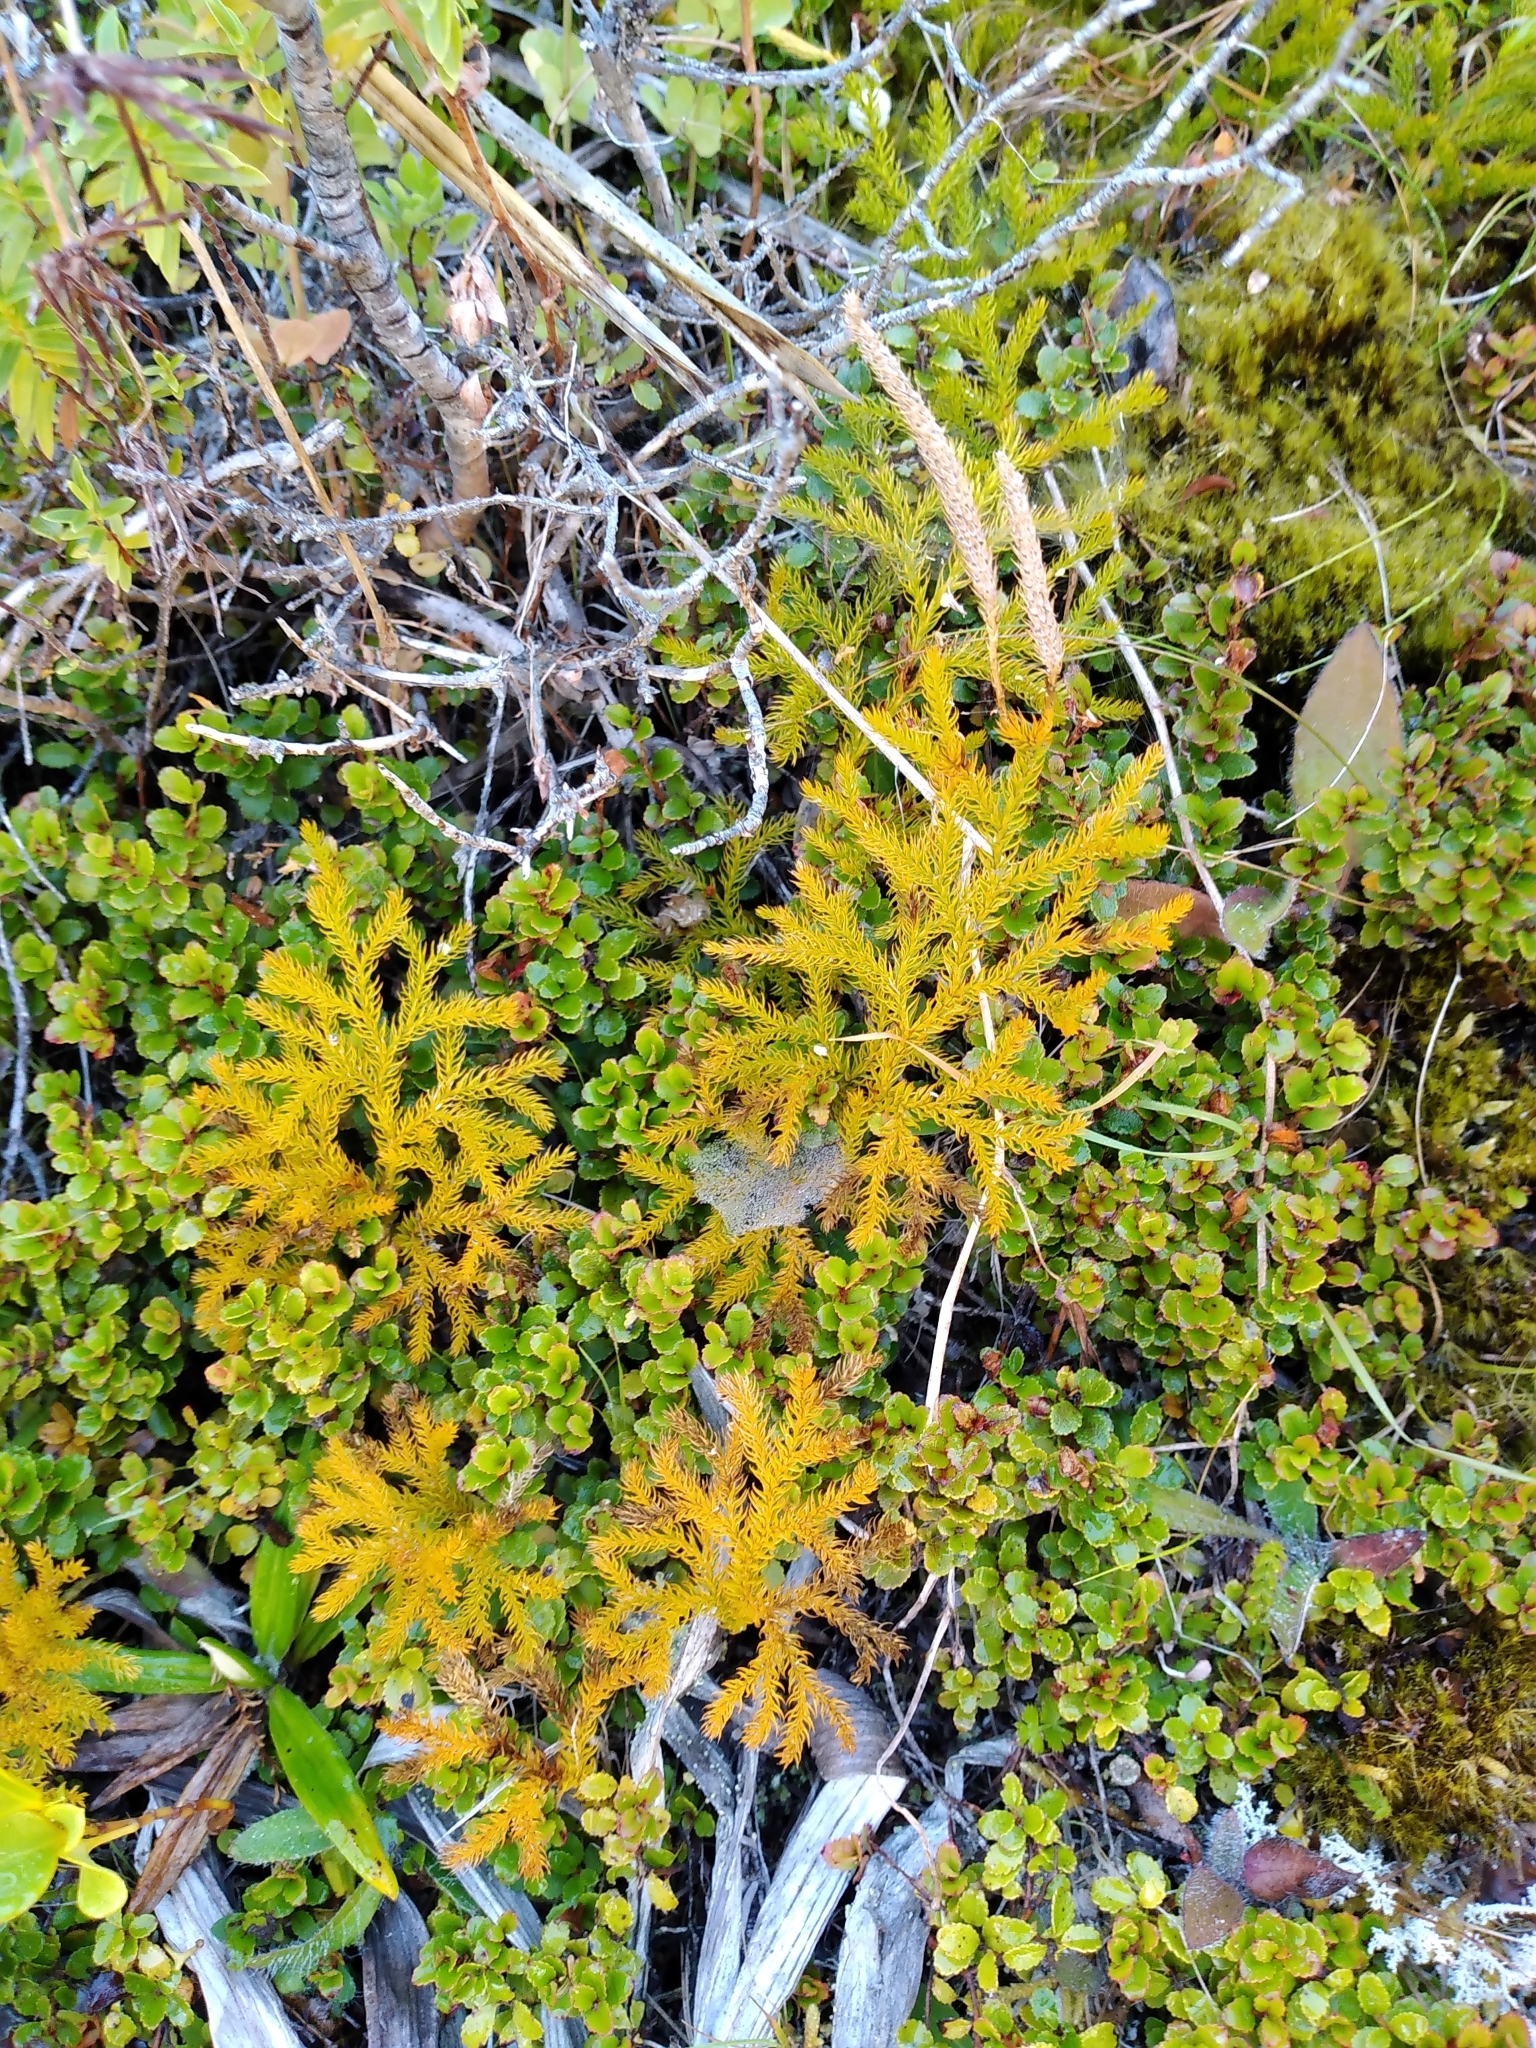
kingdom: Plantae
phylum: Tracheophyta
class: Lycopodiopsida
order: Lycopodiales
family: Lycopodiaceae
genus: Austrolycopodium
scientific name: Austrolycopodium fastigiatum
